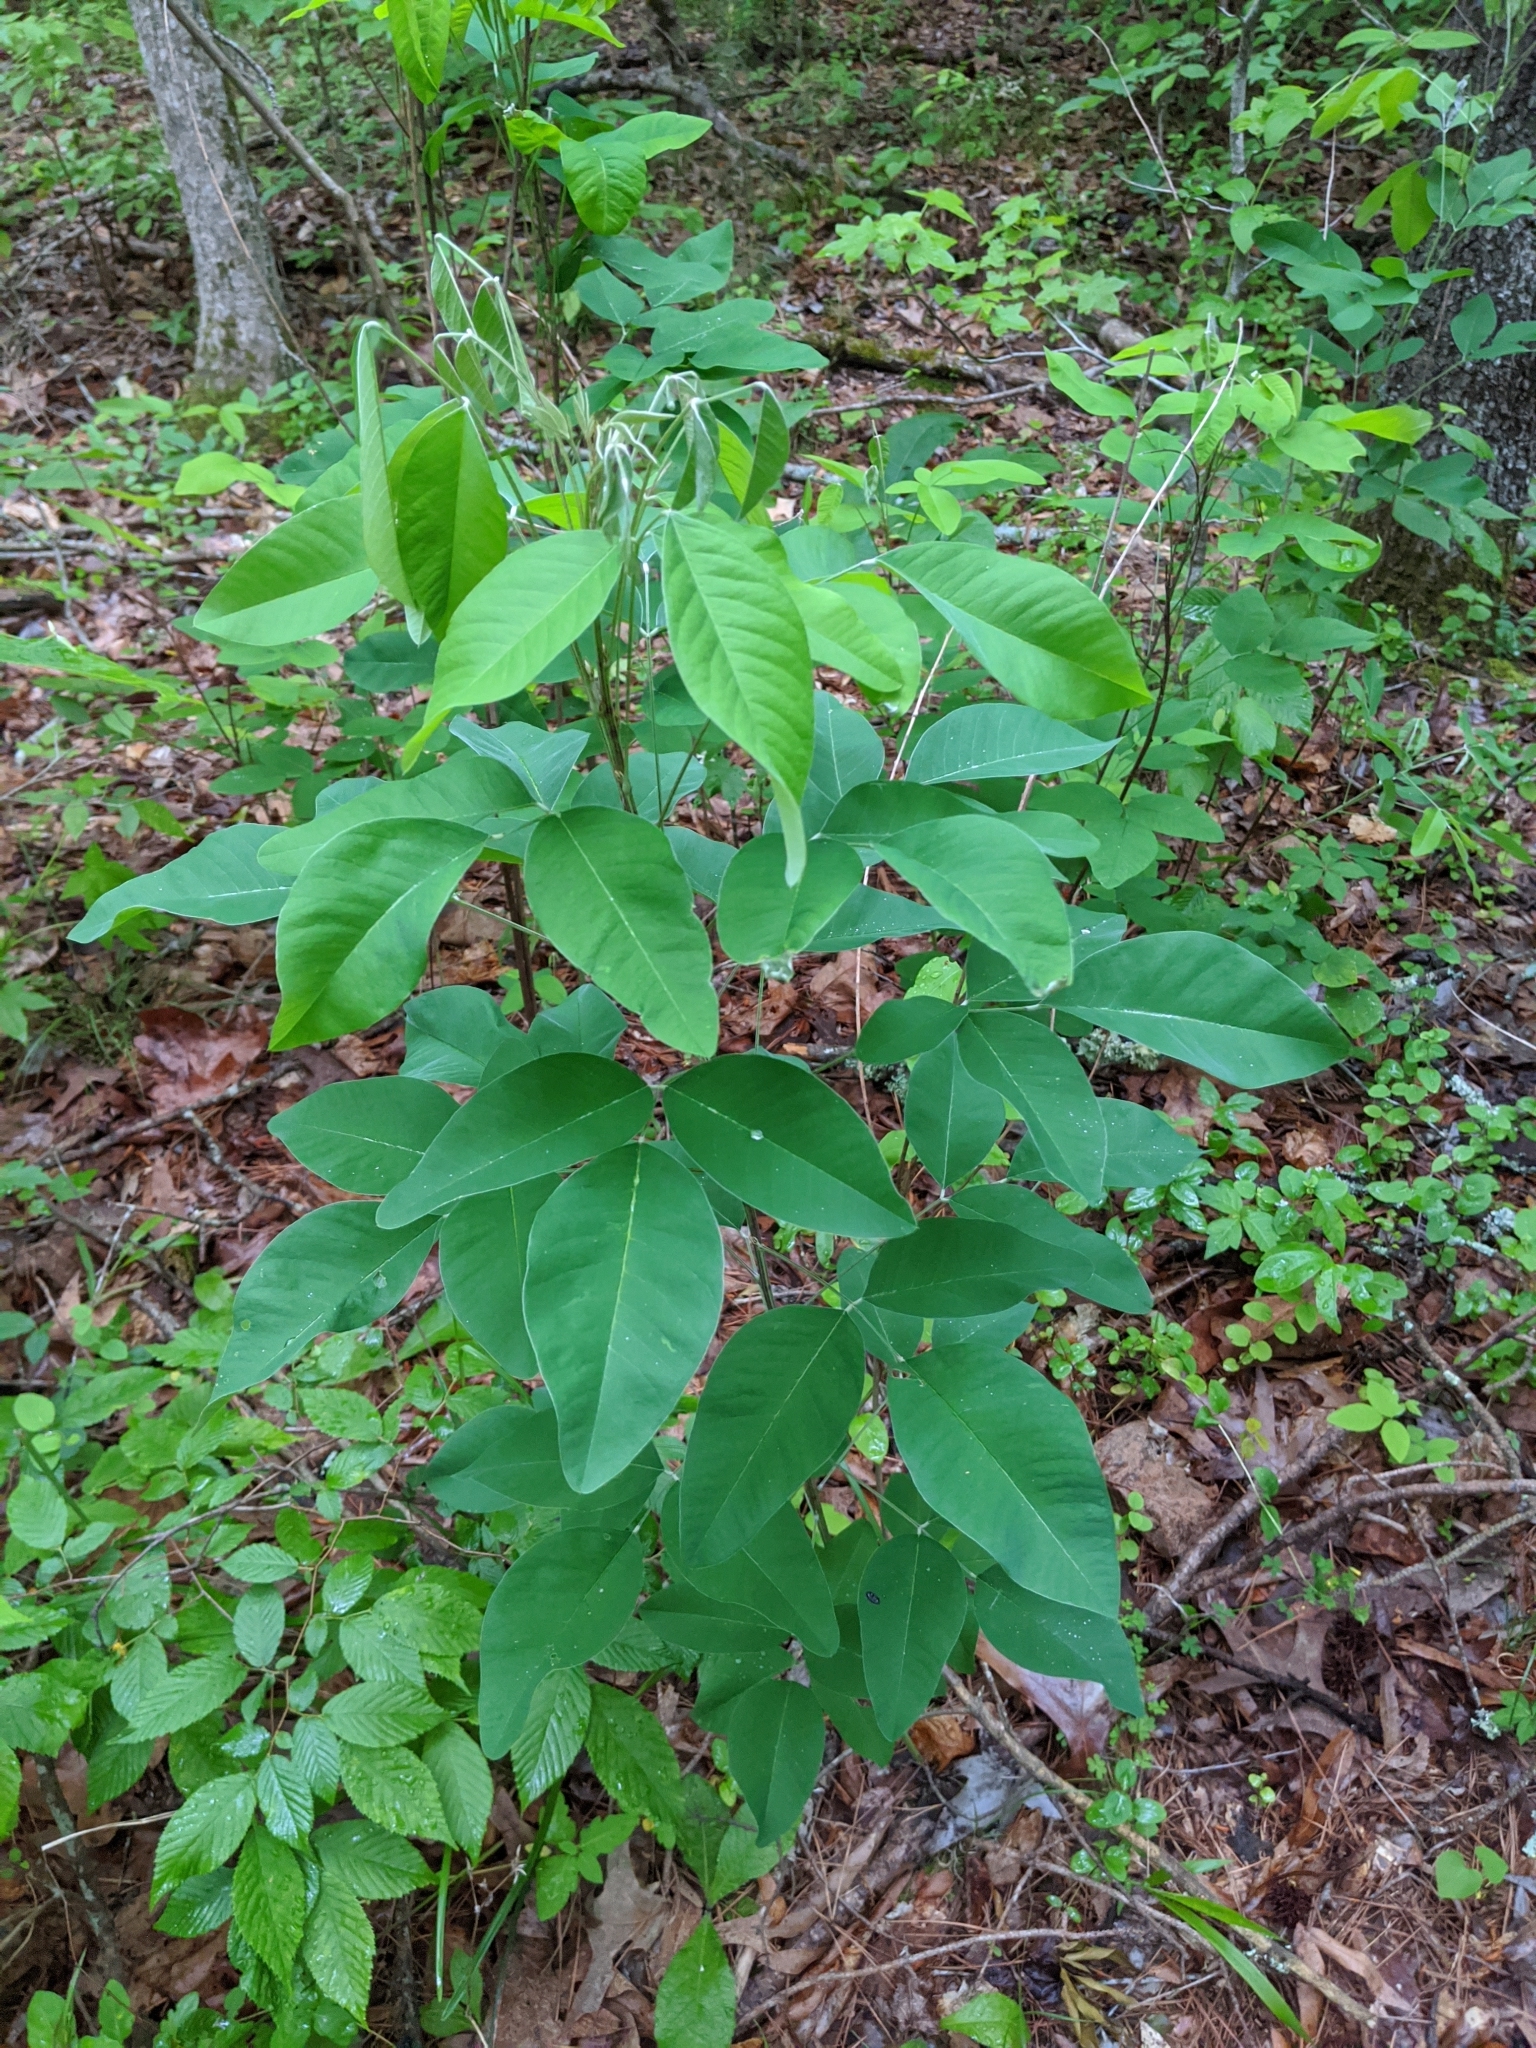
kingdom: Plantae
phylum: Tracheophyta
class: Magnoliopsida
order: Fabales
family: Fabaceae
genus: Lespedeza
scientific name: Lespedeza bicolor
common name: Shrub lespedeza
